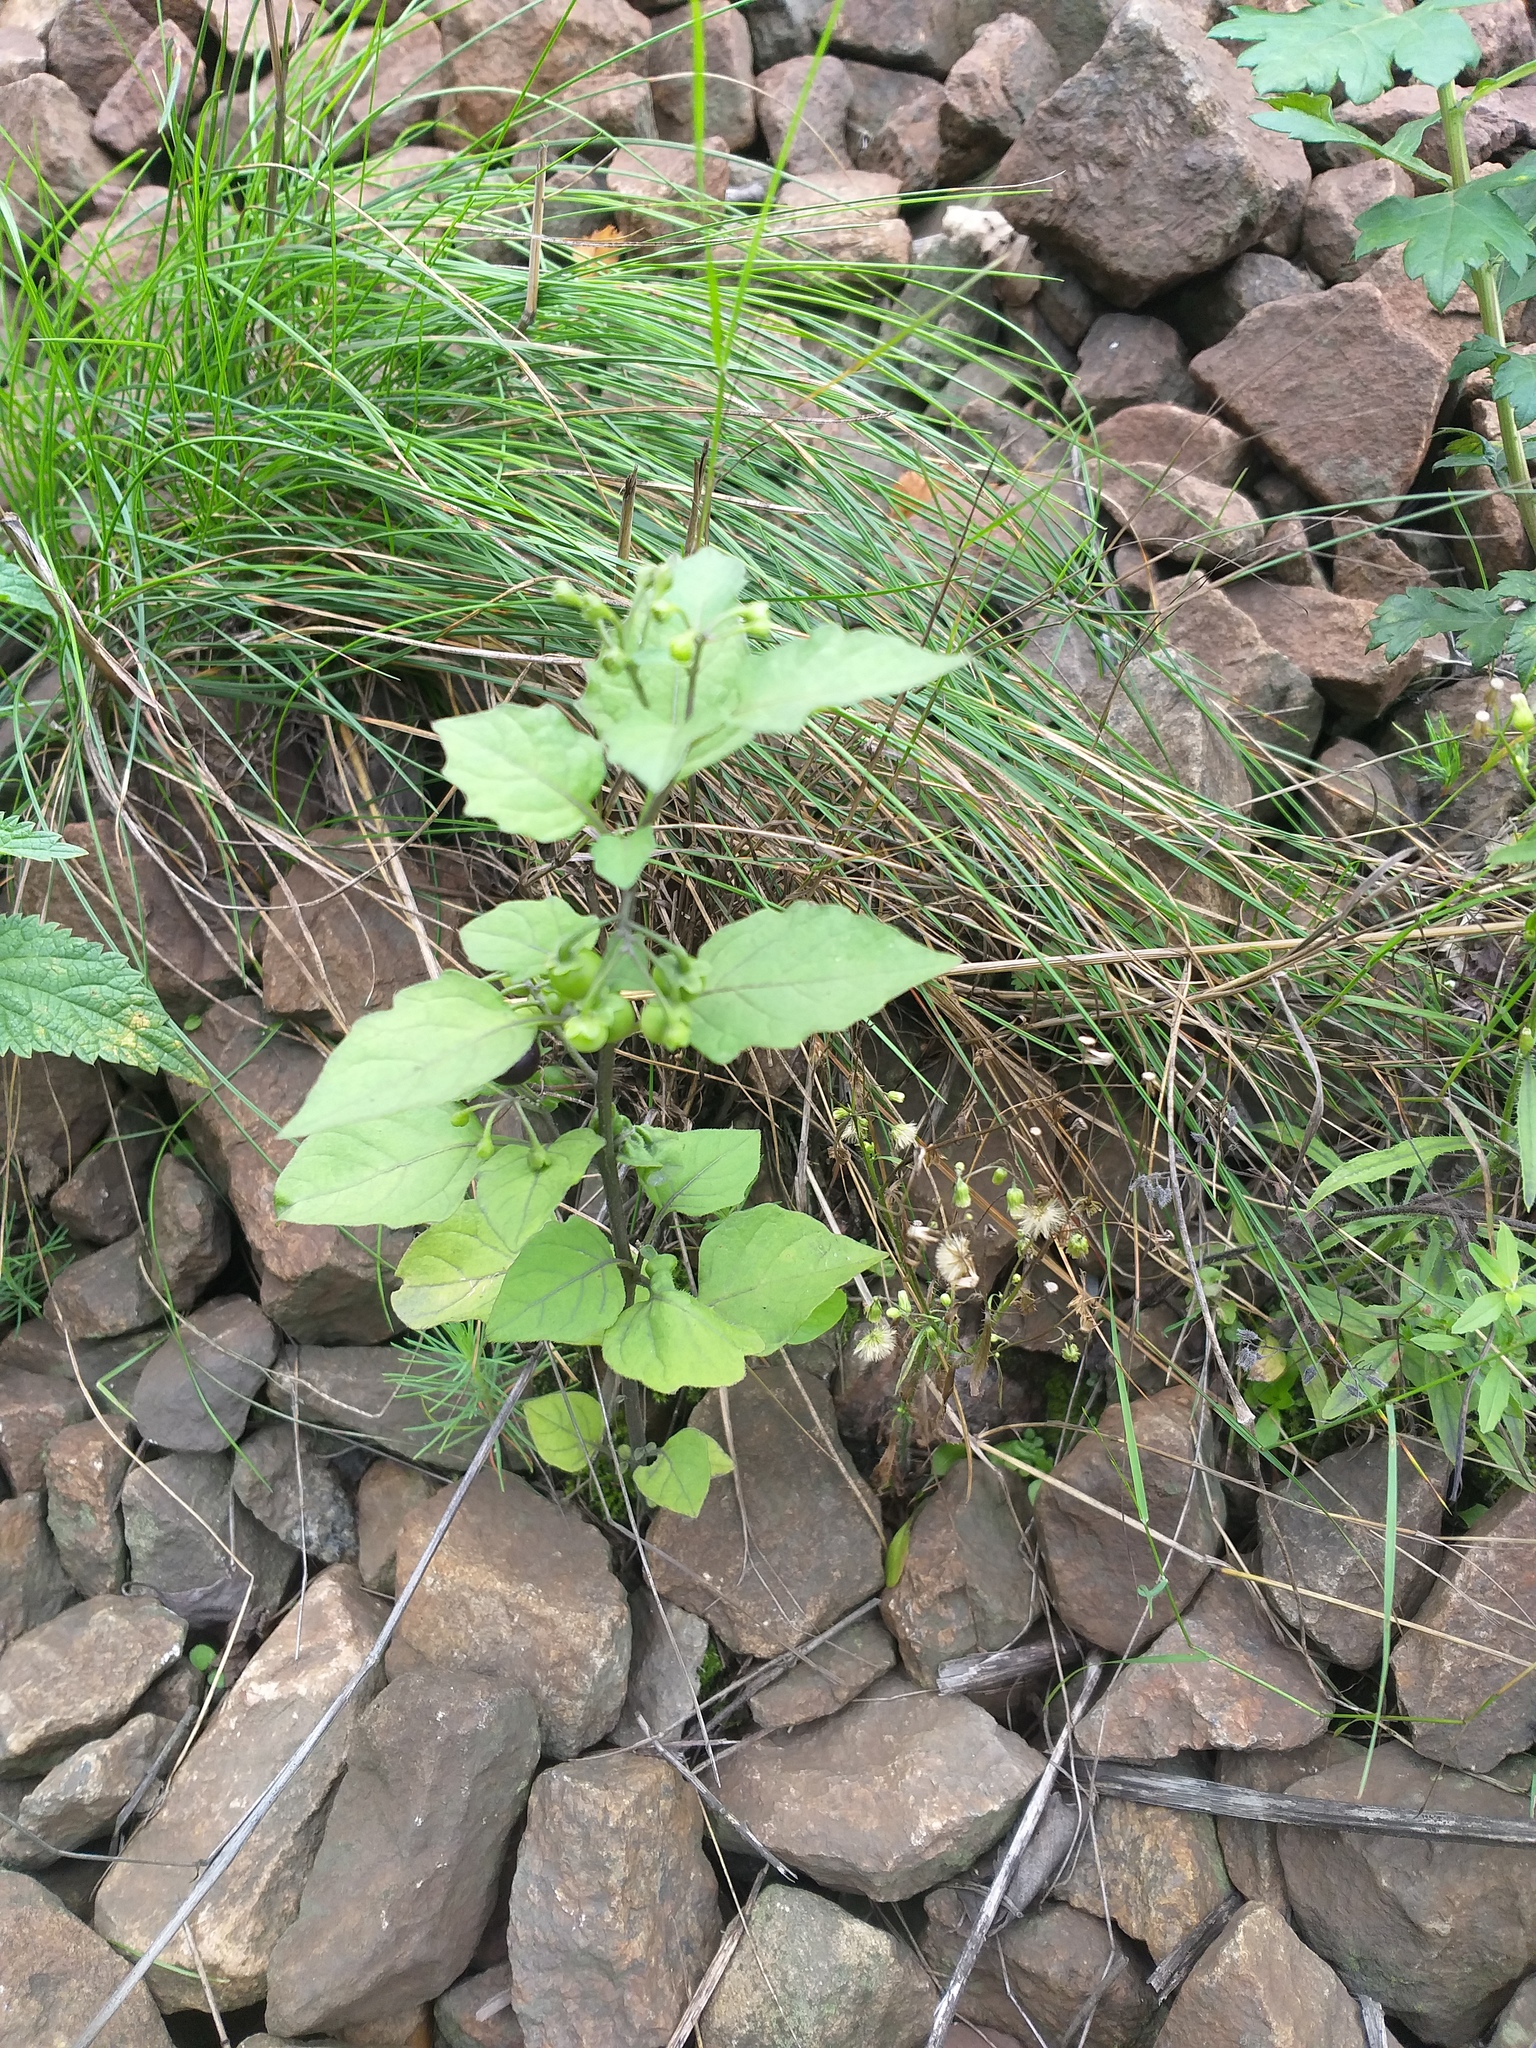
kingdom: Plantae
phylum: Tracheophyta
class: Magnoliopsida
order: Solanales
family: Solanaceae
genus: Solanum
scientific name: Solanum nigrum
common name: Black nightshade
